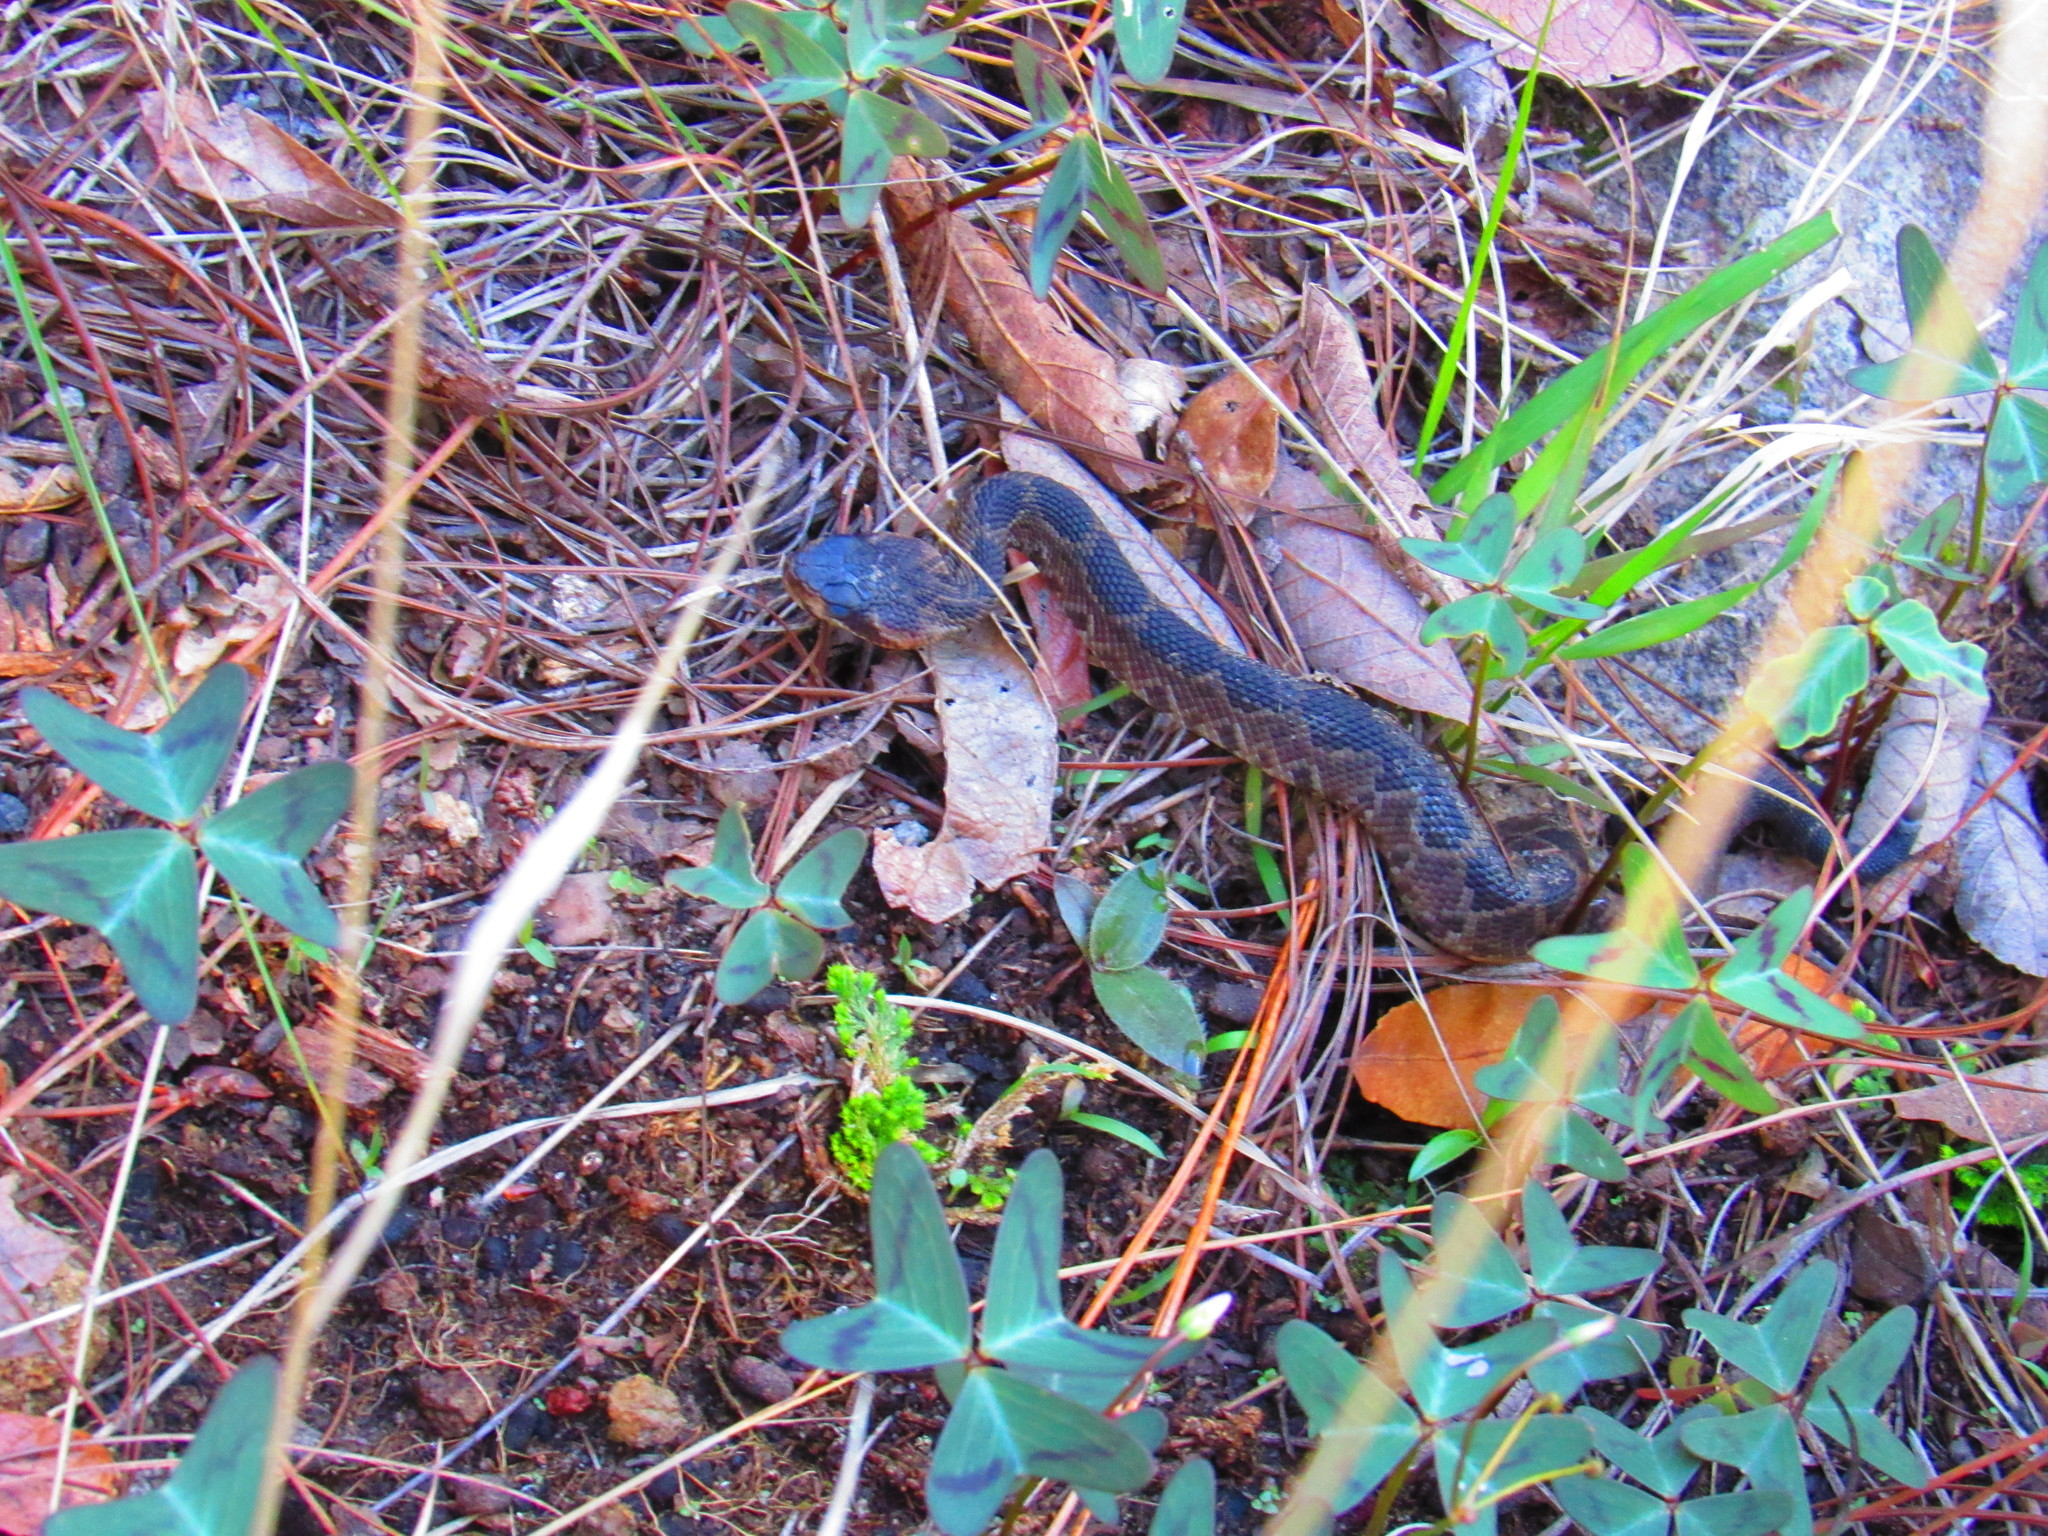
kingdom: Animalia
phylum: Chordata
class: Squamata
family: Viperidae
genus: Crotalus
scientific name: Crotalus molossus
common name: Black tailed rattlesnake
